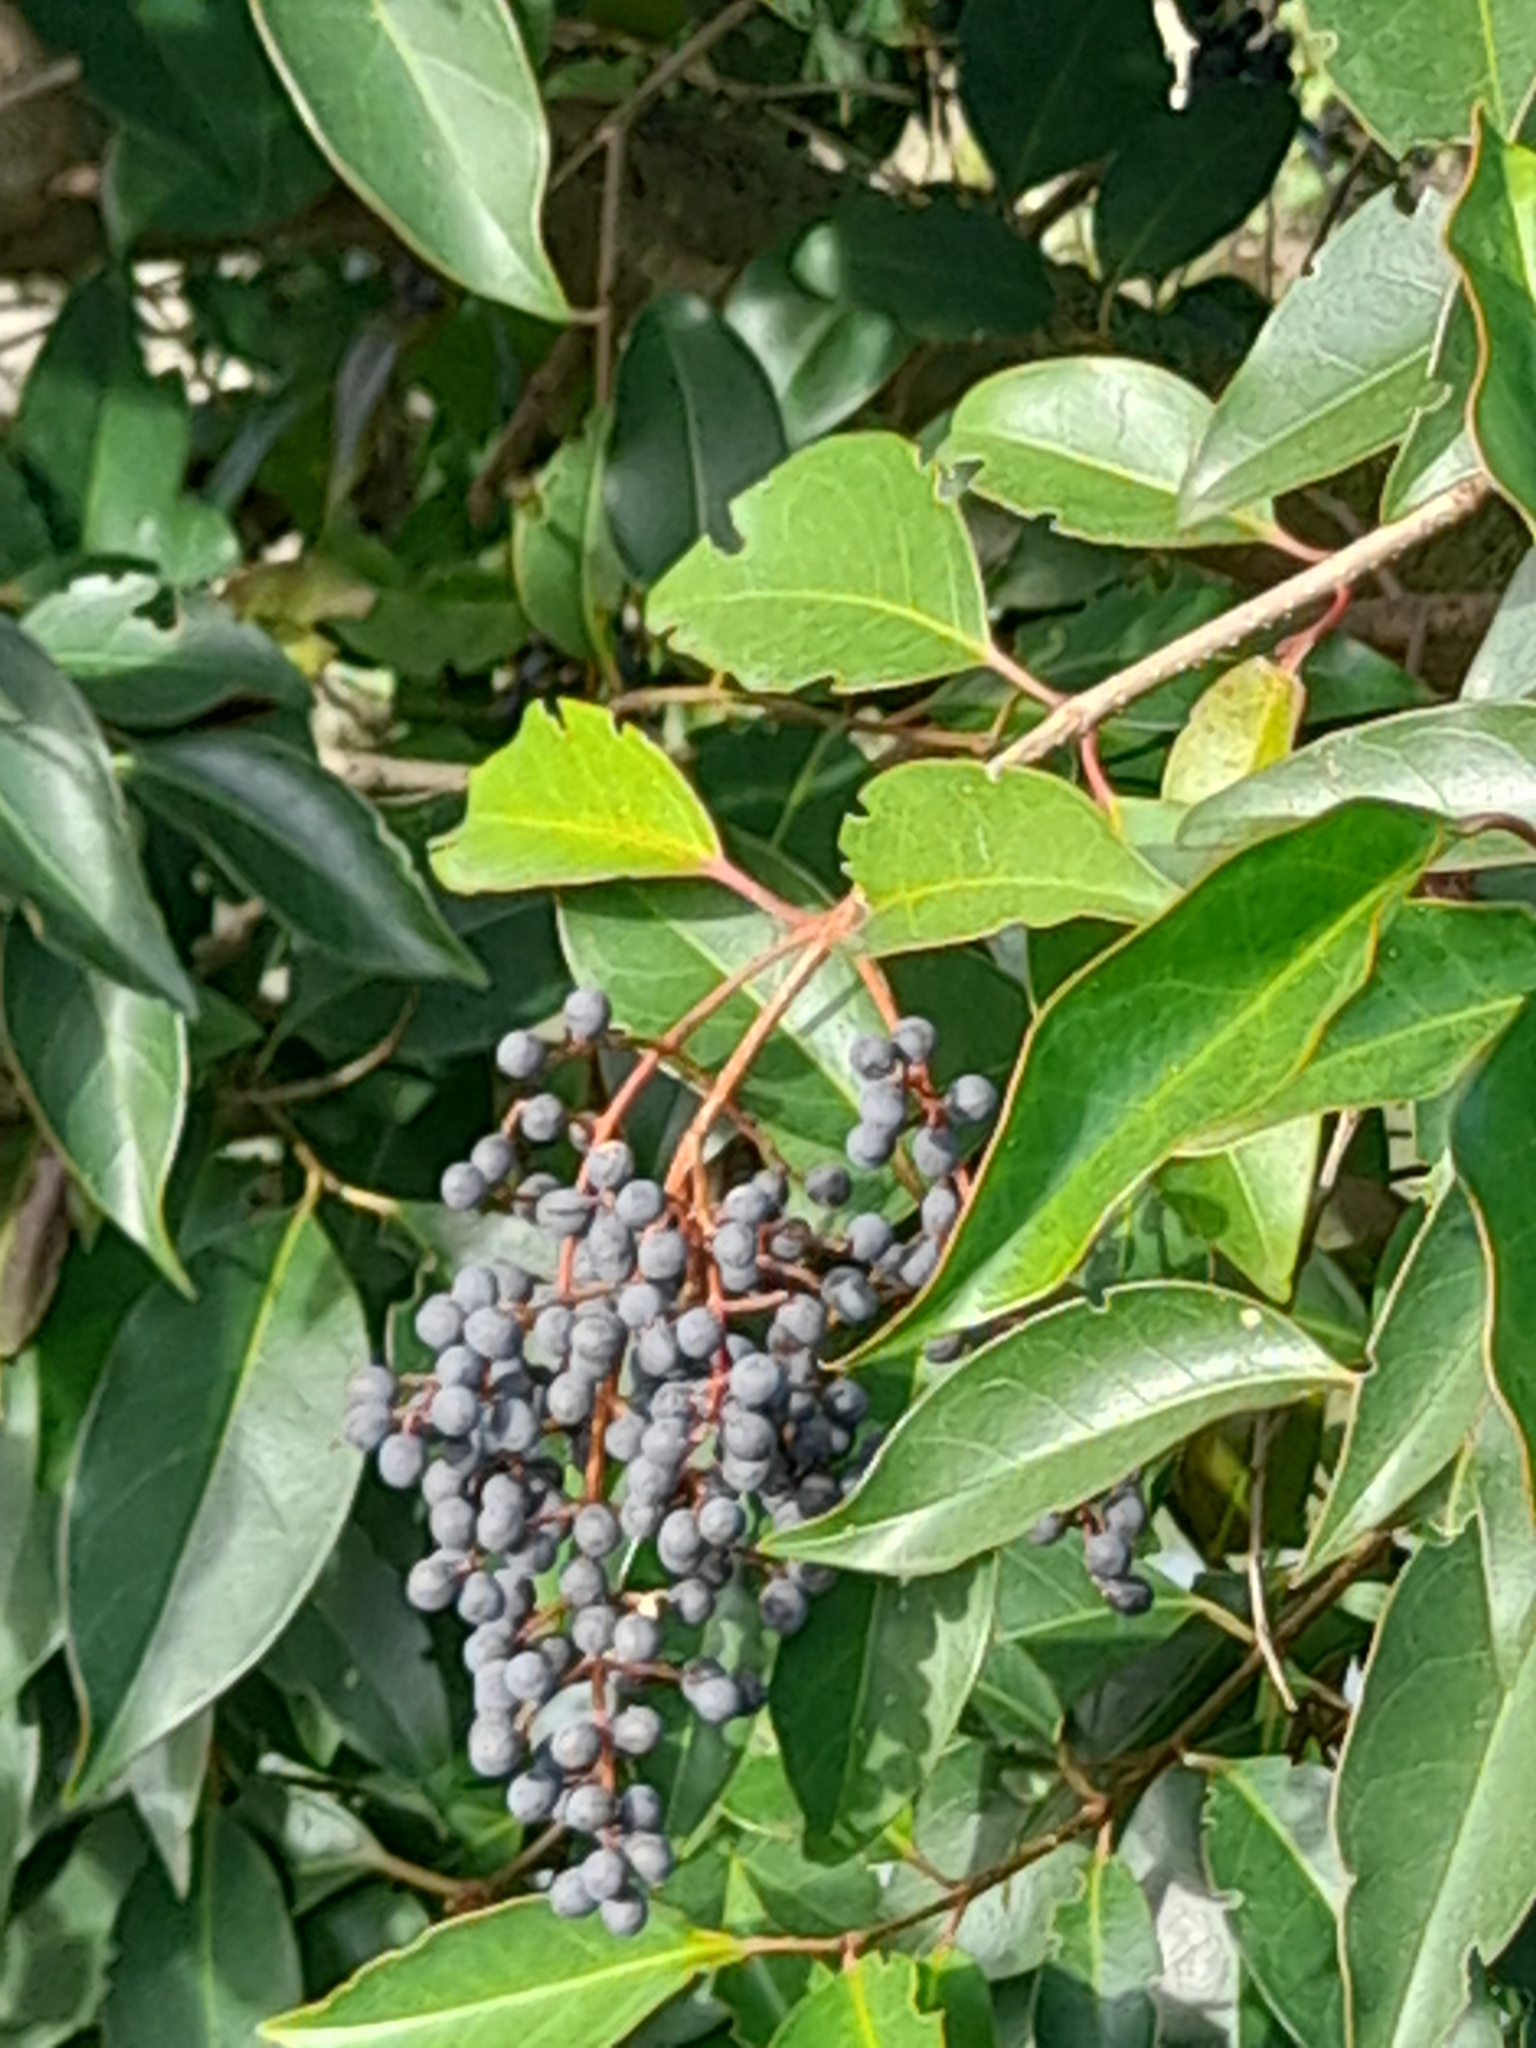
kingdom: Plantae
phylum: Tracheophyta
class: Magnoliopsida
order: Lamiales
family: Oleaceae
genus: Ligustrum
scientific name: Ligustrum lucidum
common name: Glossy privet
